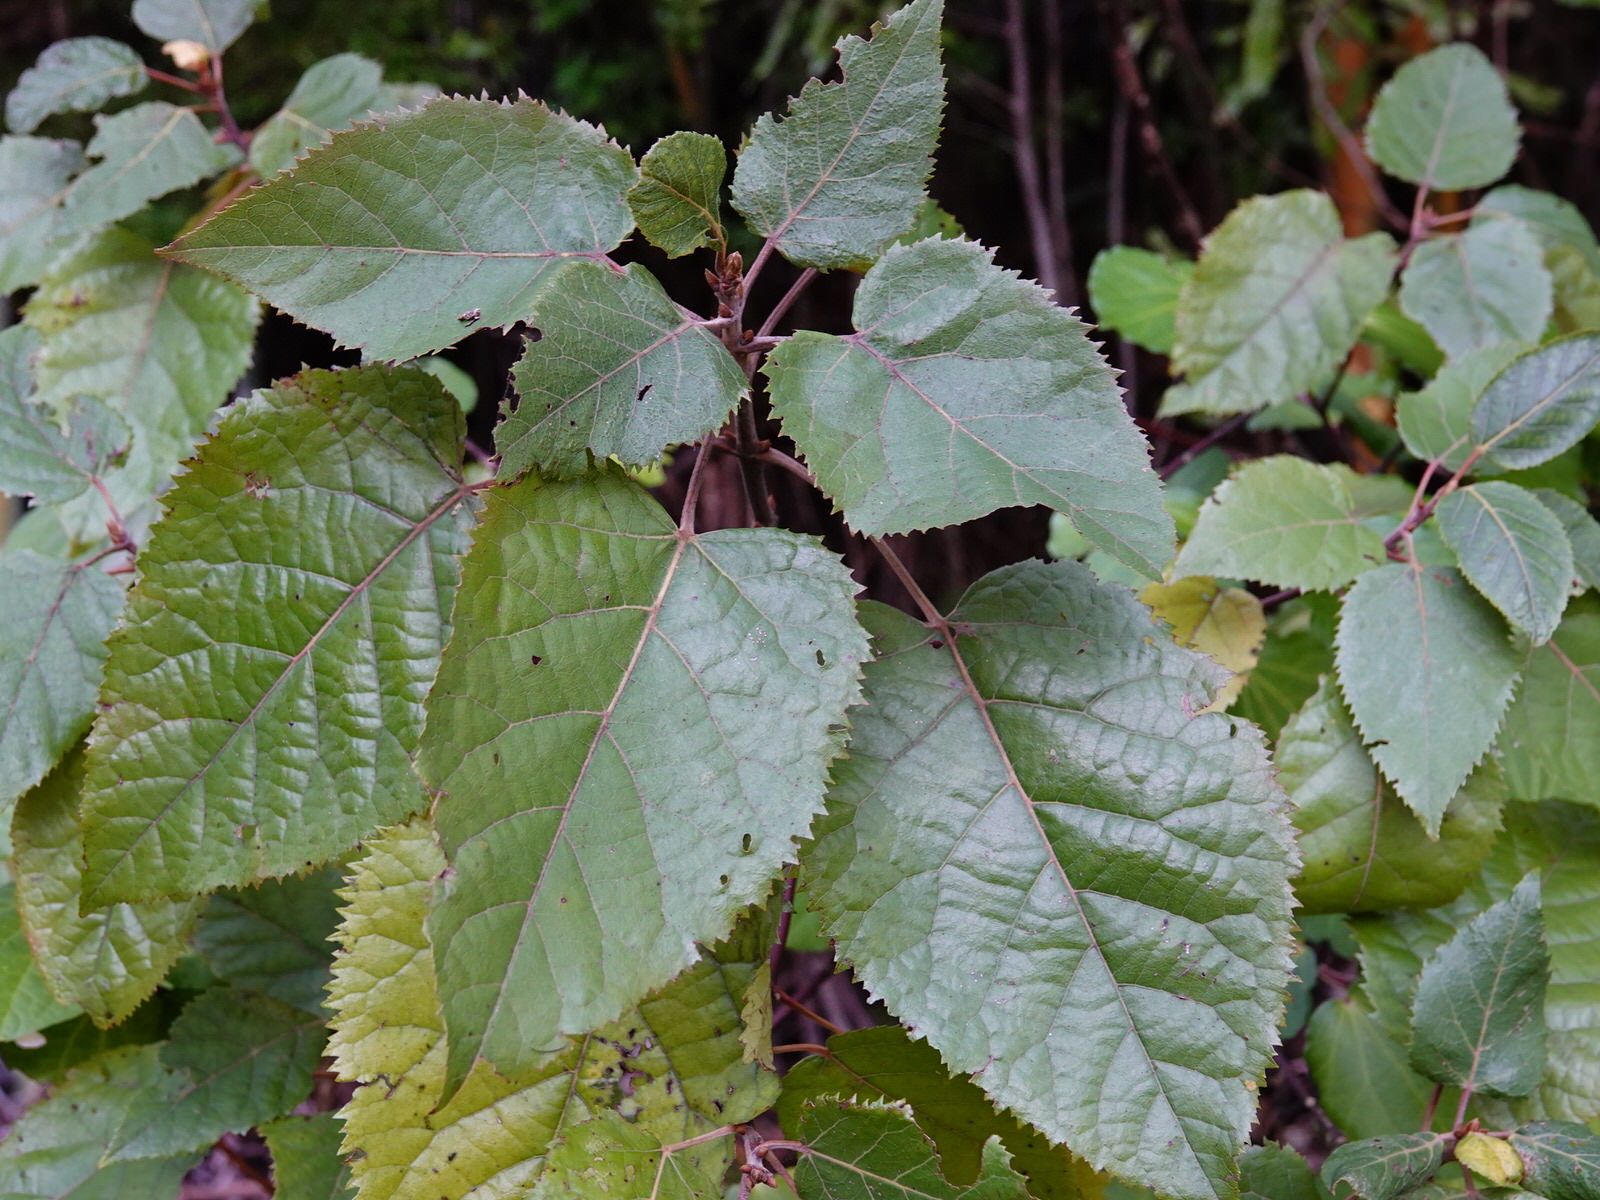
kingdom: Plantae
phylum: Tracheophyta
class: Magnoliopsida
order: Oxalidales
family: Elaeocarpaceae
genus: Aristotelia
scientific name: Aristotelia serrata
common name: New zealand wineberry
